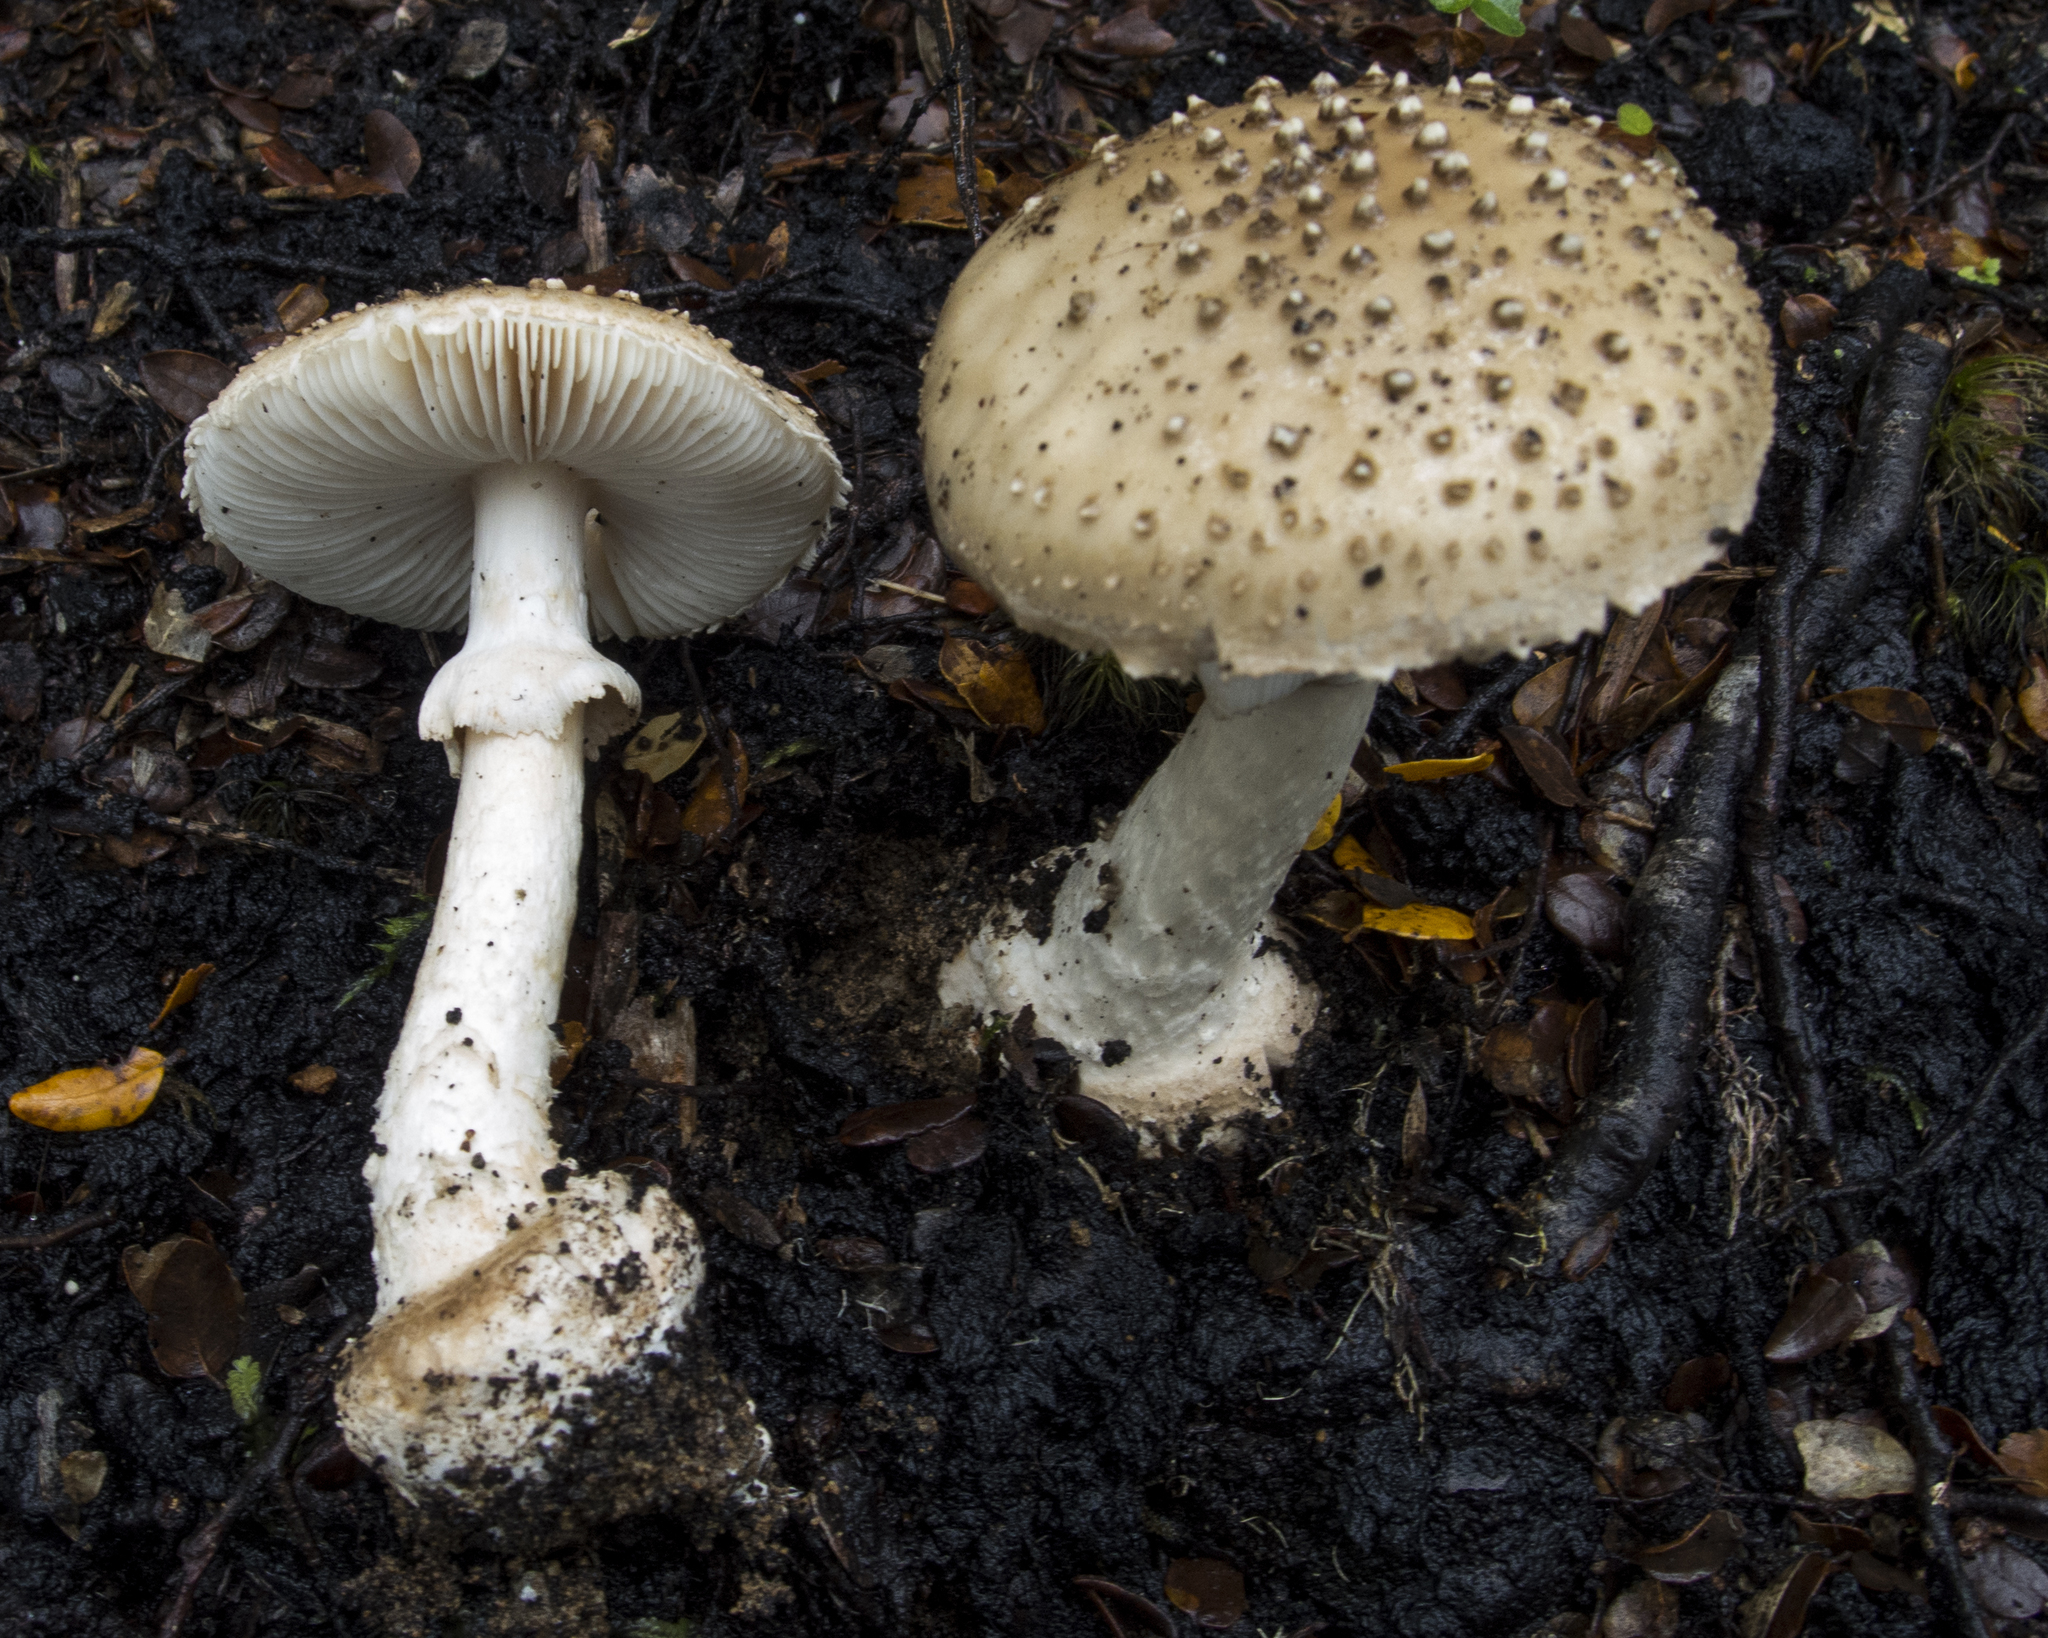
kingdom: Fungi
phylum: Basidiomycota
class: Agaricomycetes
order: Agaricales
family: Amanitaceae
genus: Amanita
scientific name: Amanita australis
